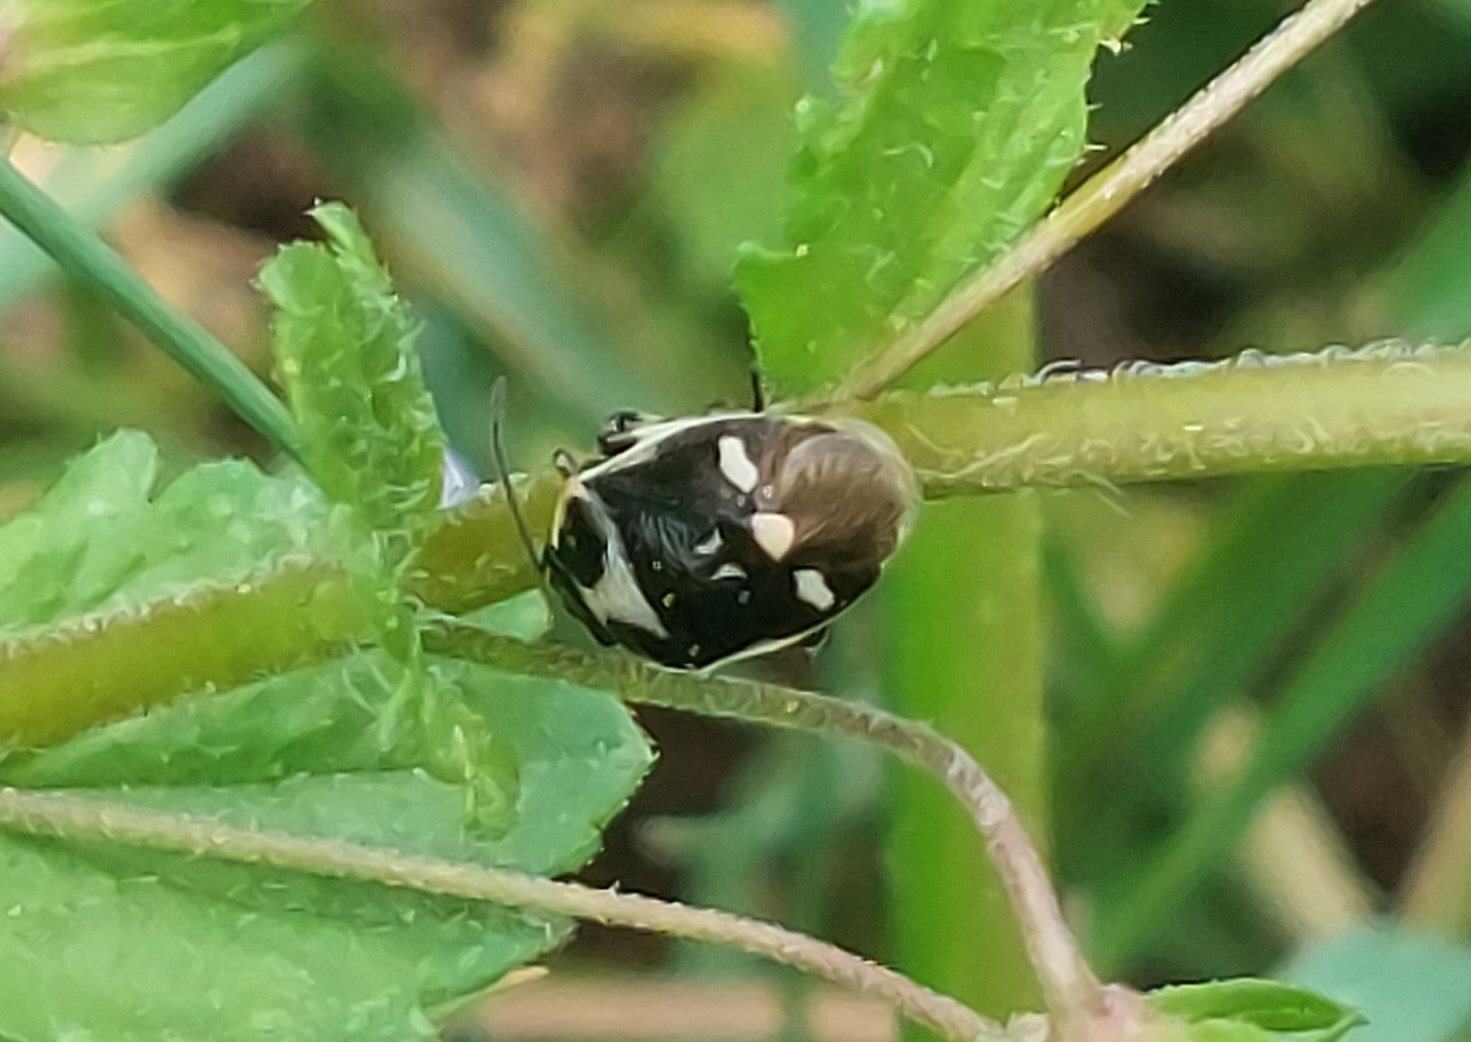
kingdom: Animalia
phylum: Arthropoda
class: Insecta
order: Hemiptera
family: Pentatomidae
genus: Eurydema
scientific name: Eurydema oleracea
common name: Cabbage bug
